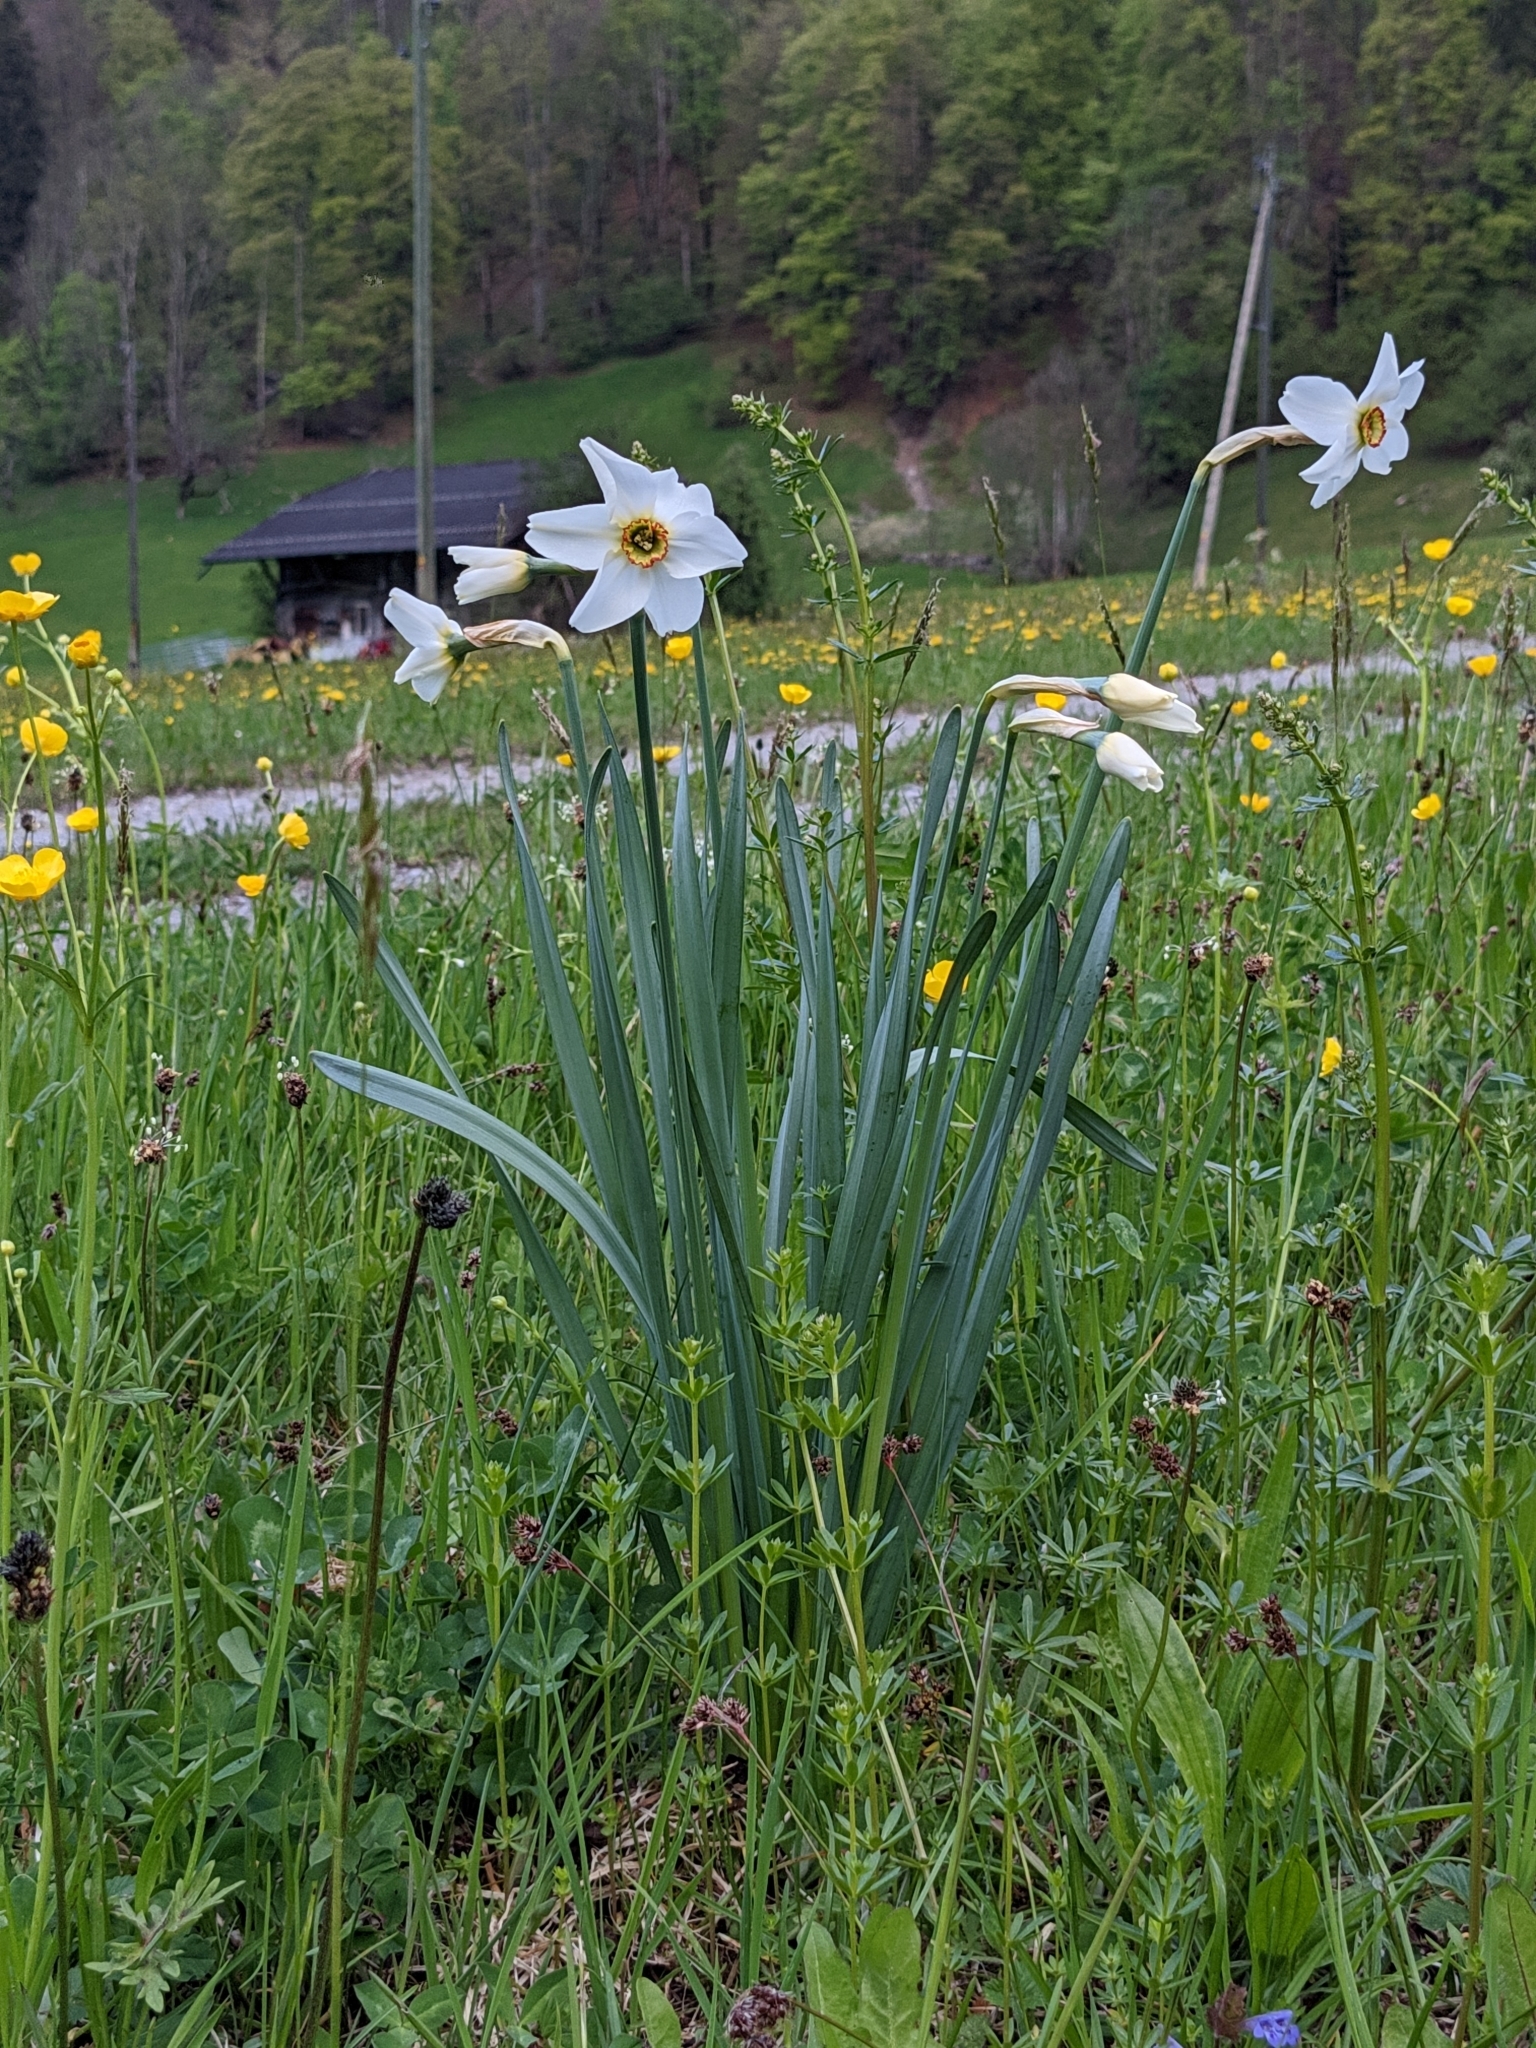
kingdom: Plantae
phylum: Tracheophyta
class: Liliopsida
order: Asparagales
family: Amaryllidaceae
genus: Narcissus
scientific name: Narcissus poeticus
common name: Pheasant's-eye daffodil
